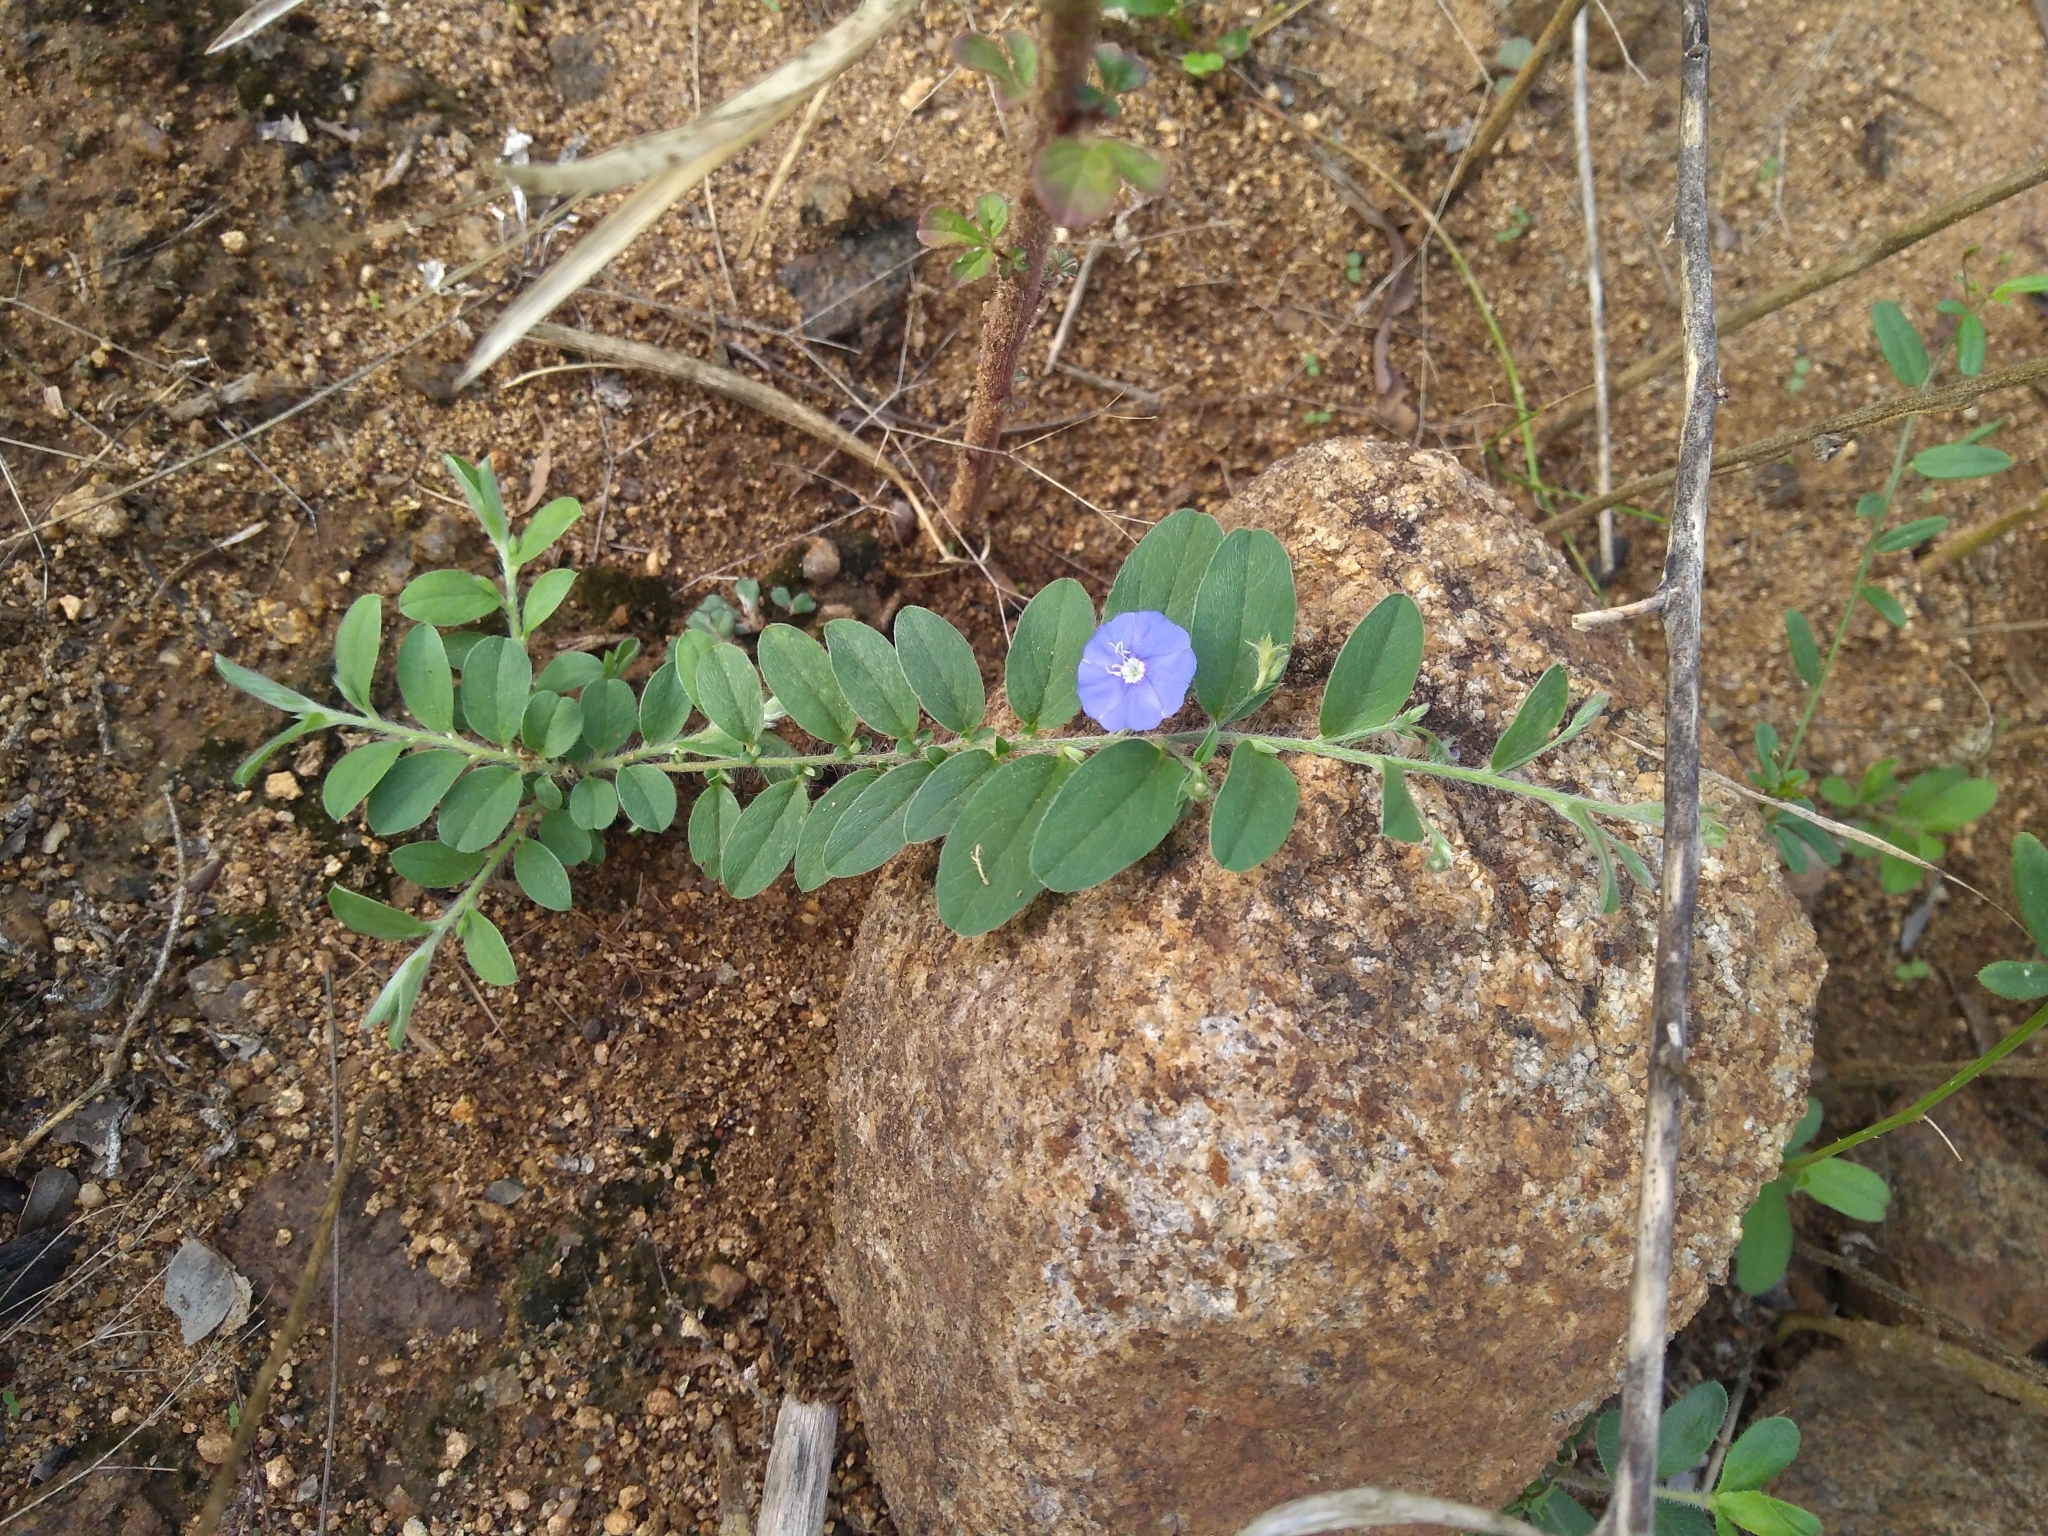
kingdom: Plantae
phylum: Tracheophyta
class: Magnoliopsida
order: Solanales
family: Convolvulaceae
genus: Evolvulus
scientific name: Evolvulus alsinoides
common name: Slender dwarf morning-glory
